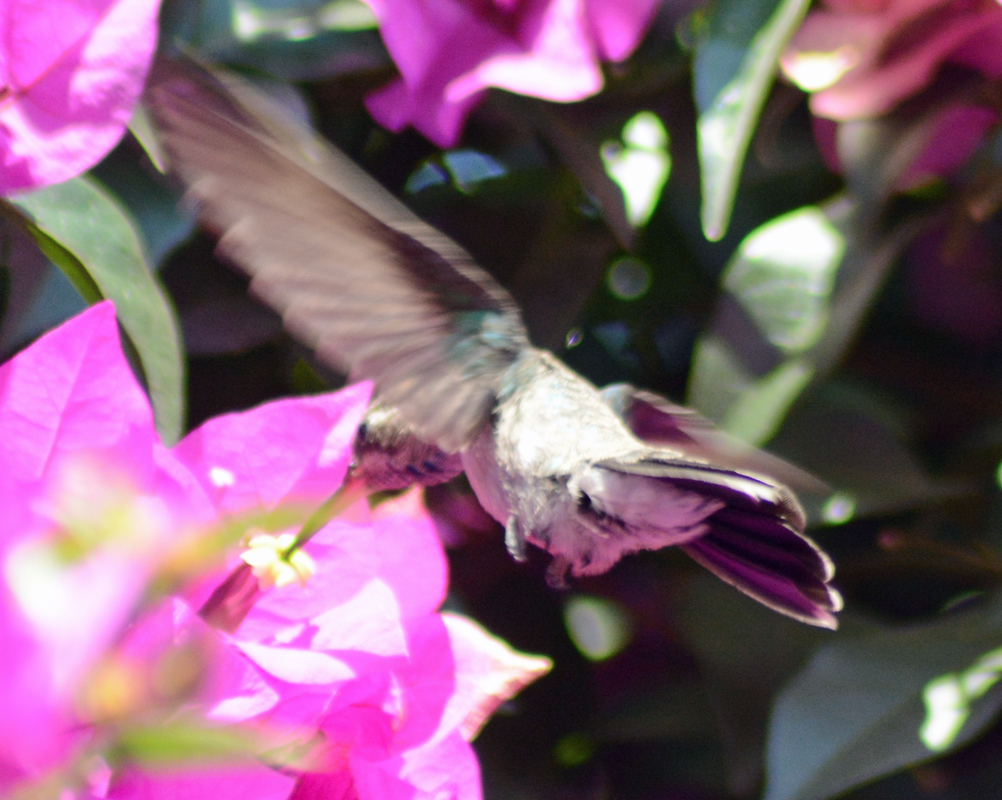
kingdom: Animalia
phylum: Chordata
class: Aves
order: Apodiformes
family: Trochilidae
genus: Cynanthus
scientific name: Cynanthus latirostris
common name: Broad-billed hummingbird
